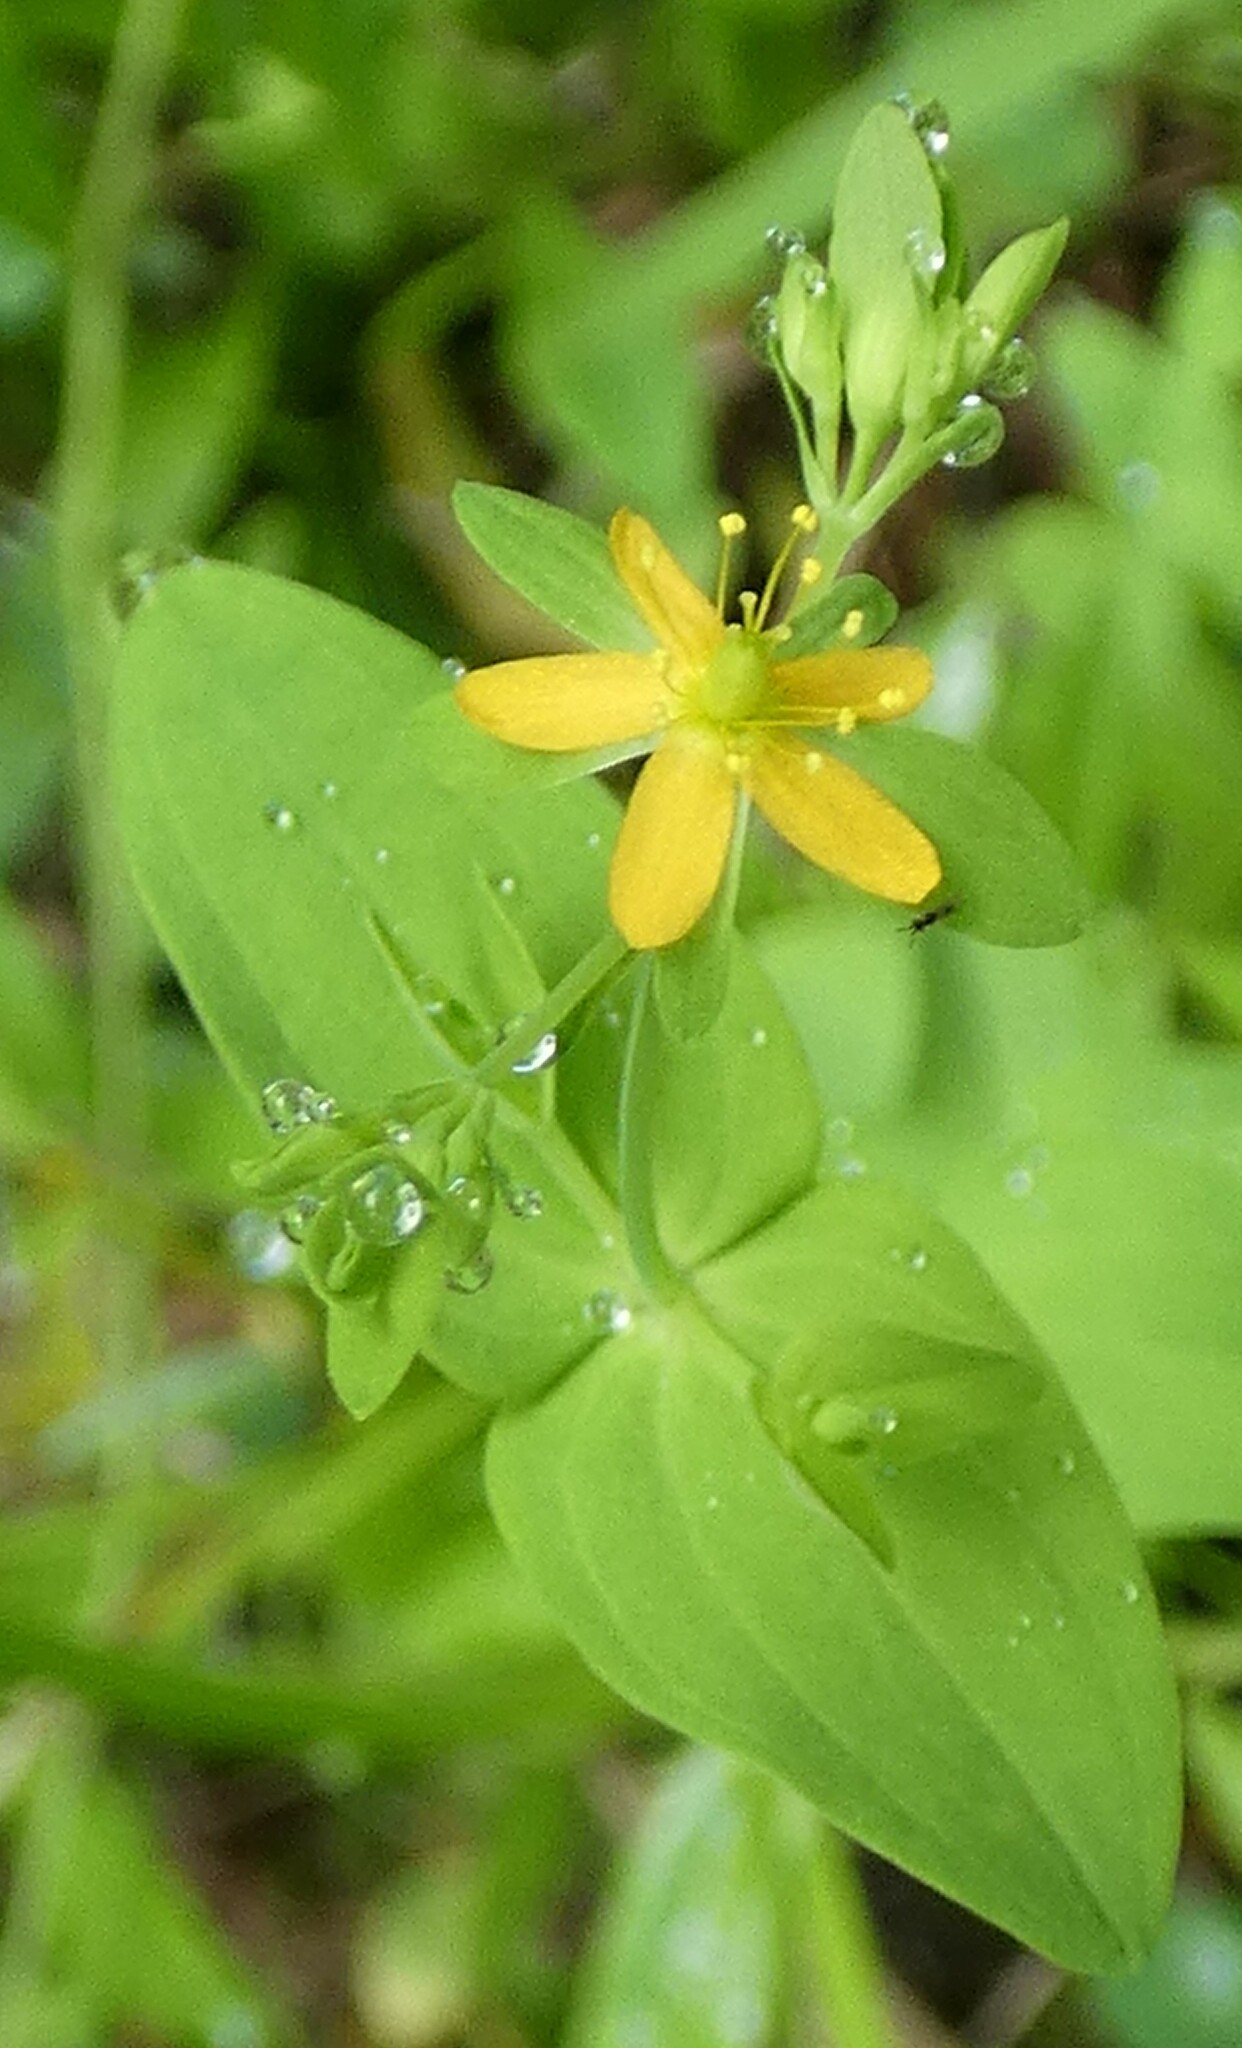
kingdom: Plantae
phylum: Tracheophyta
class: Magnoliopsida
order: Malpighiales
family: Hypericaceae
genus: Hypericum
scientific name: Hypericum mutilum
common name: Dwarf st. john's-wort
